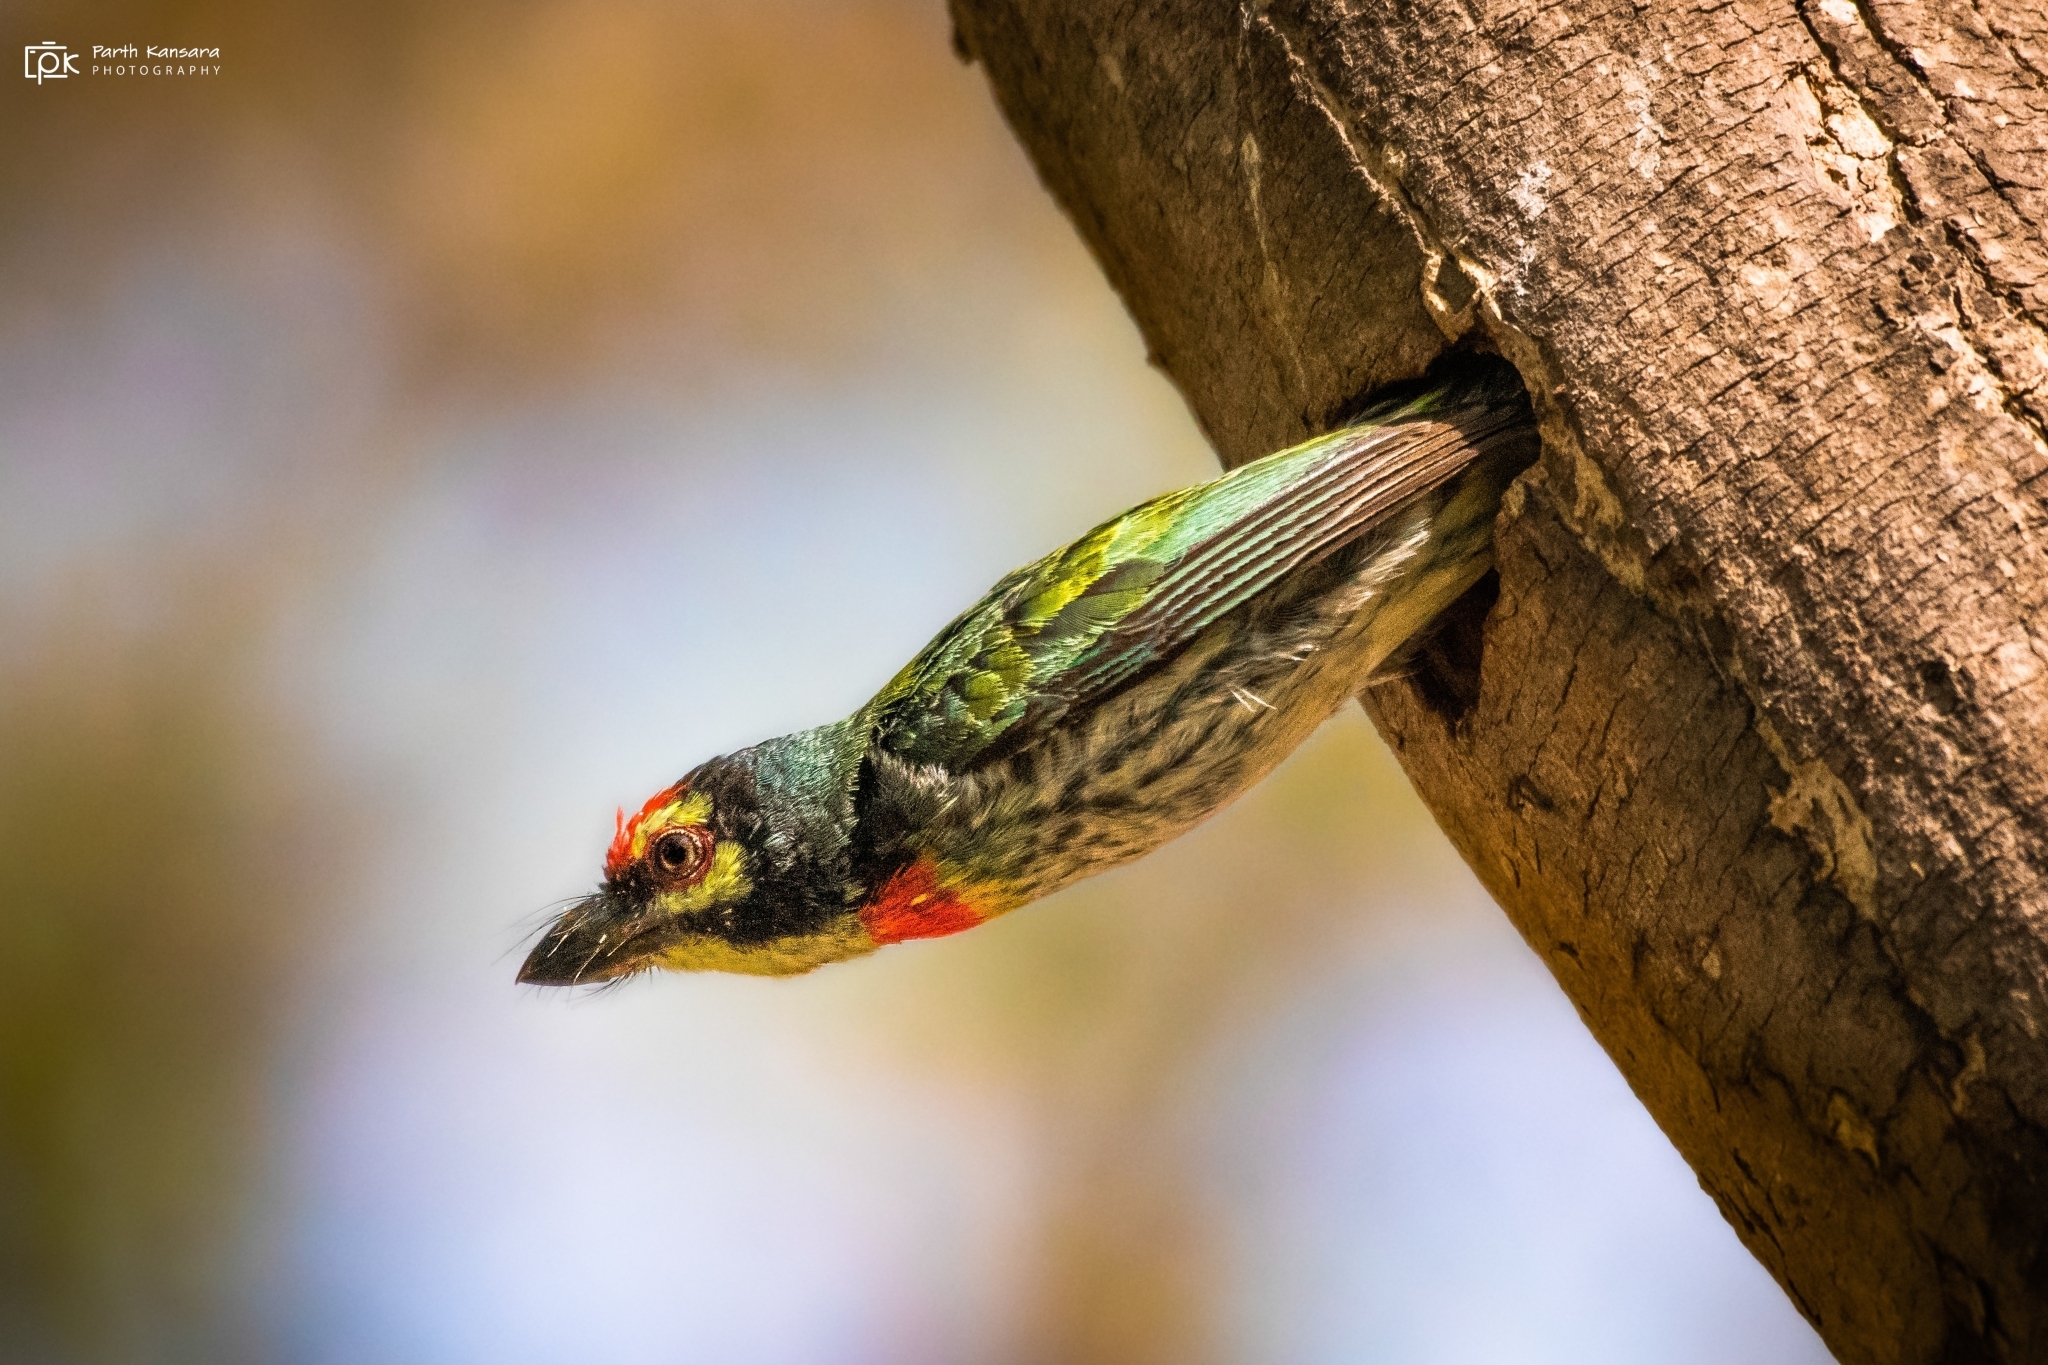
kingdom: Animalia
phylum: Chordata
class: Aves
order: Piciformes
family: Megalaimidae
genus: Psilopogon
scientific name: Psilopogon haemacephalus
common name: Coppersmith barbet
